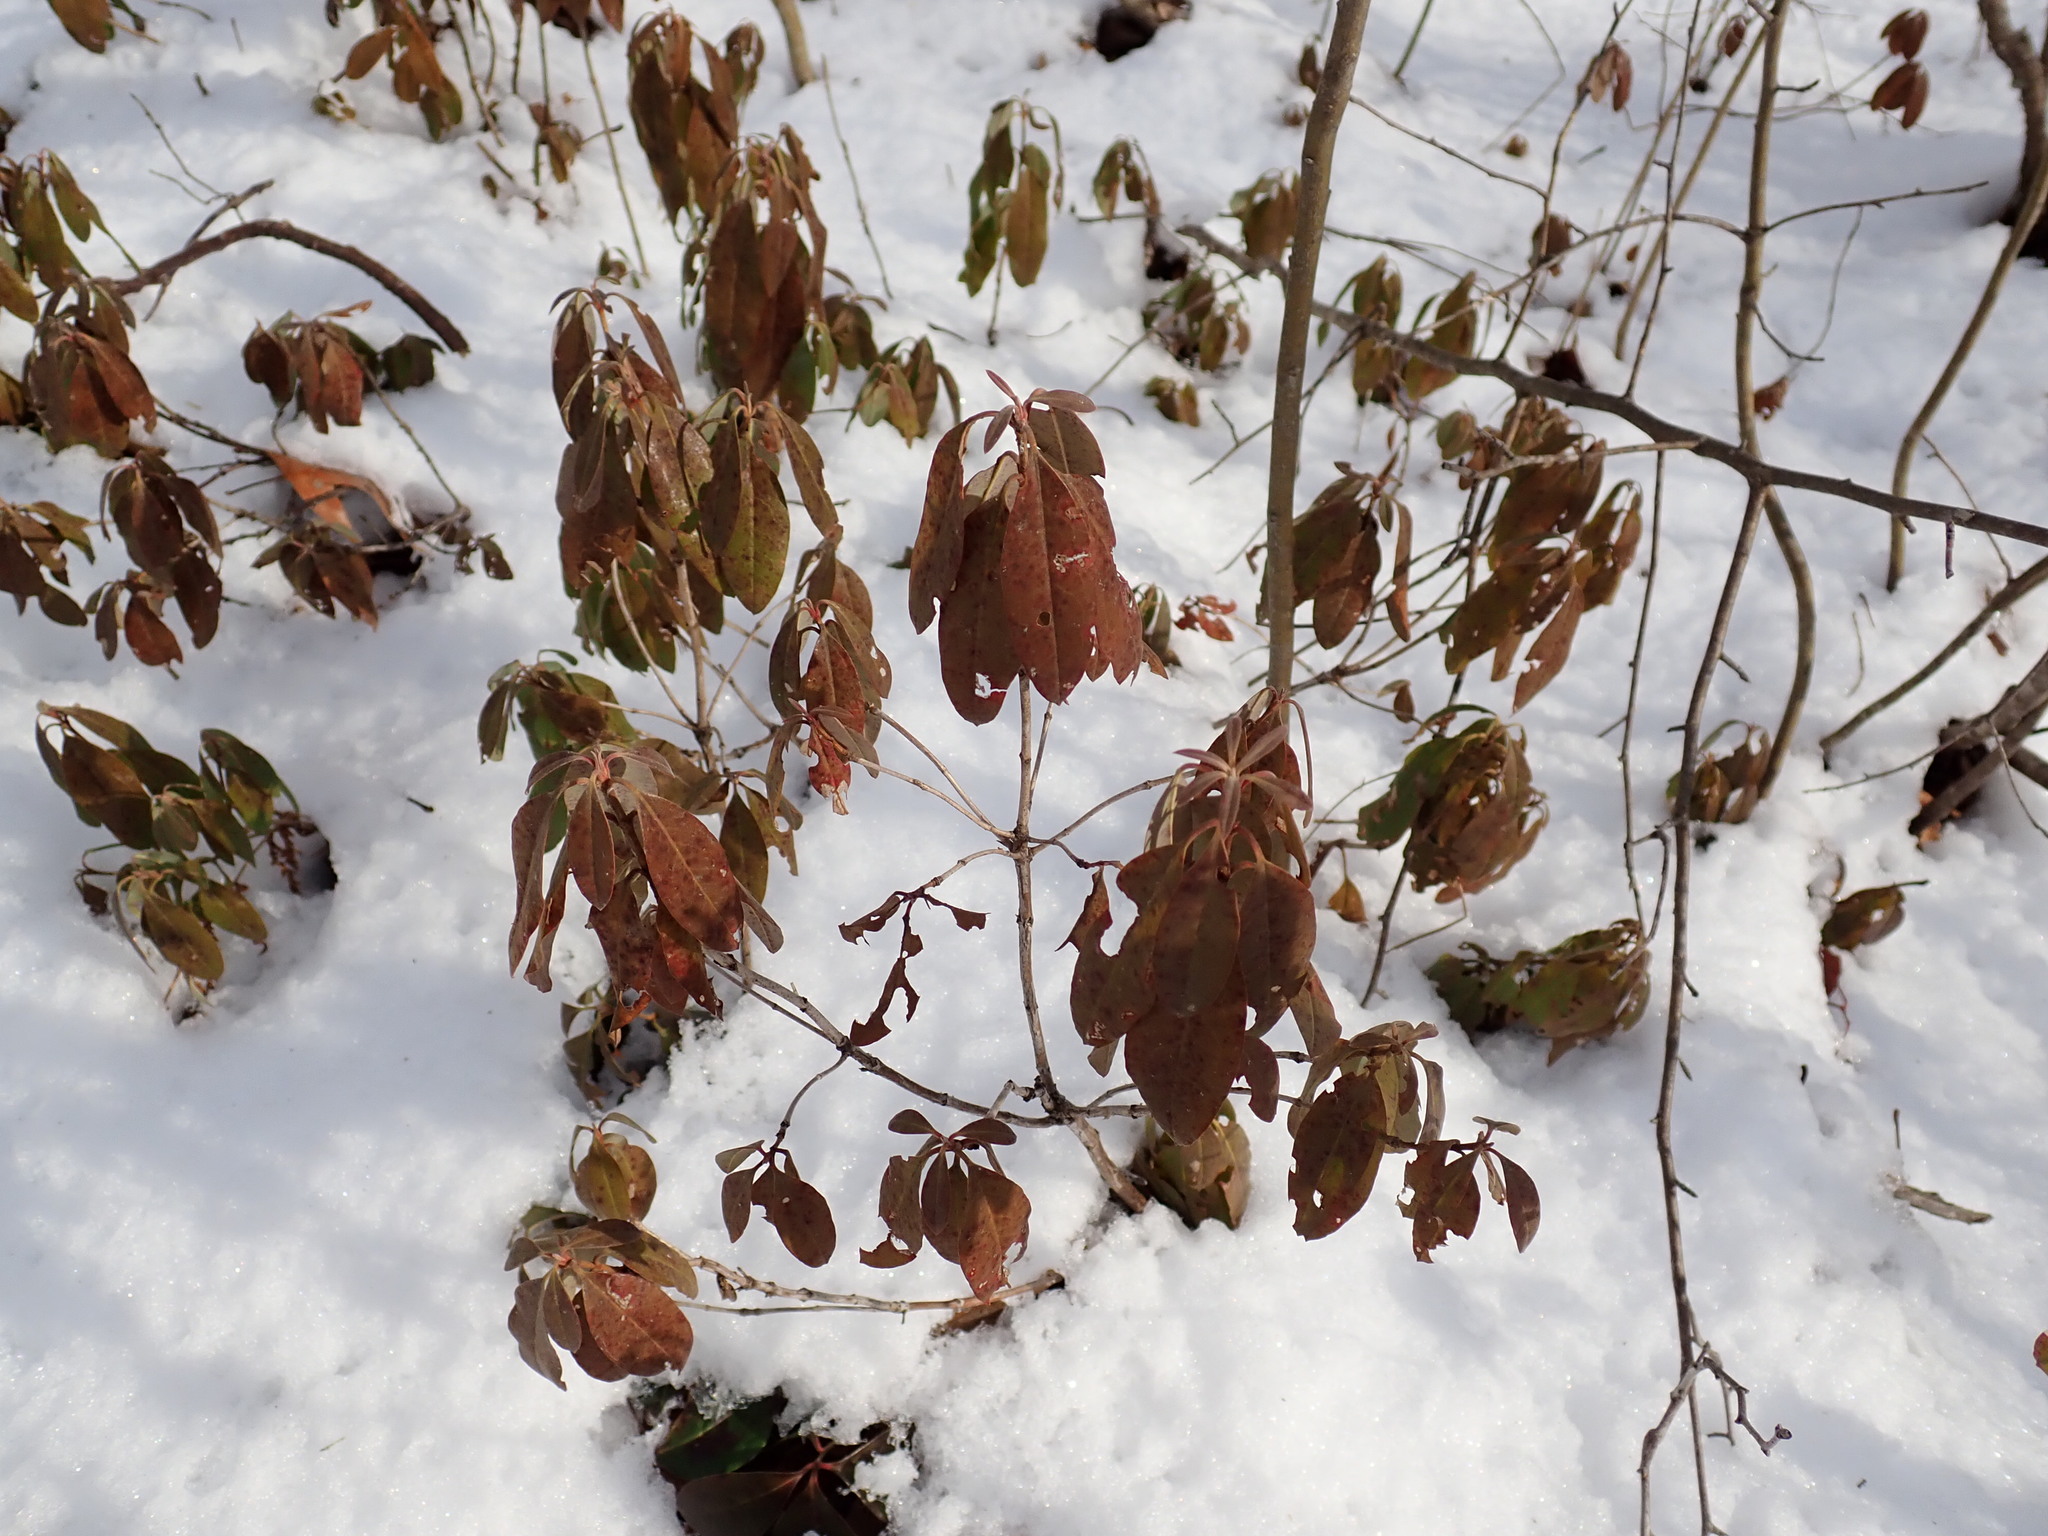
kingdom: Plantae
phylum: Tracheophyta
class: Magnoliopsida
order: Ericales
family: Ericaceae
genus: Kalmia
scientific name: Kalmia angustifolia
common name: Sheep-laurel
